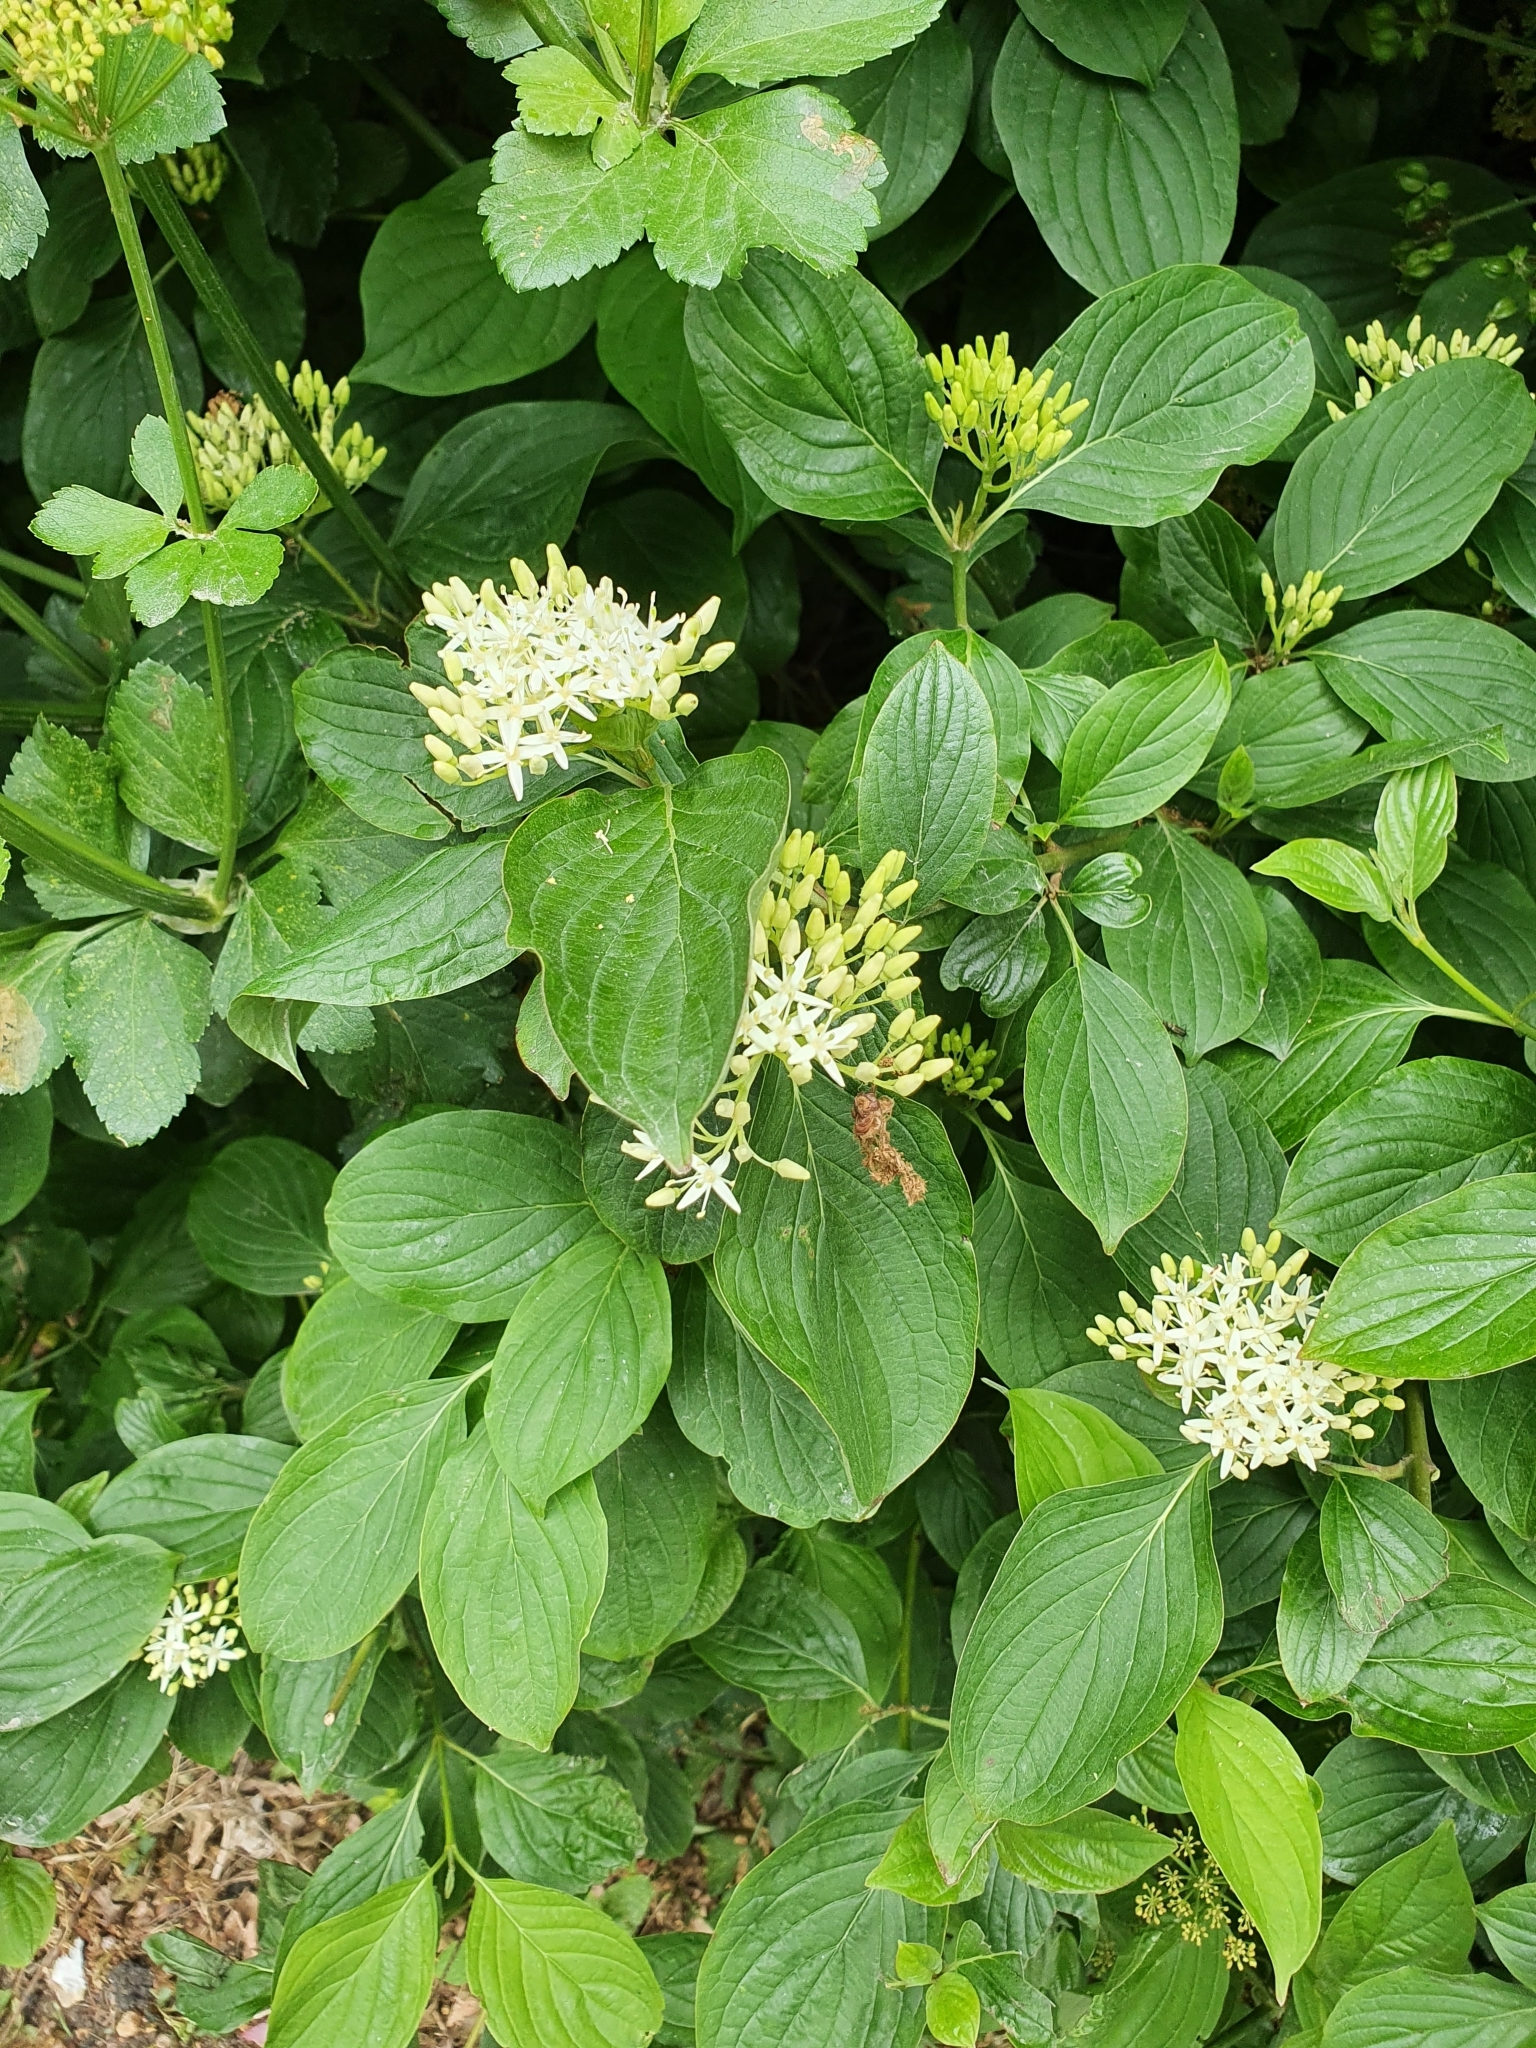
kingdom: Plantae
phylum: Tracheophyta
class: Magnoliopsida
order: Cornales
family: Cornaceae
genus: Cornus
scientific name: Cornus sanguinea
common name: Dogwood
